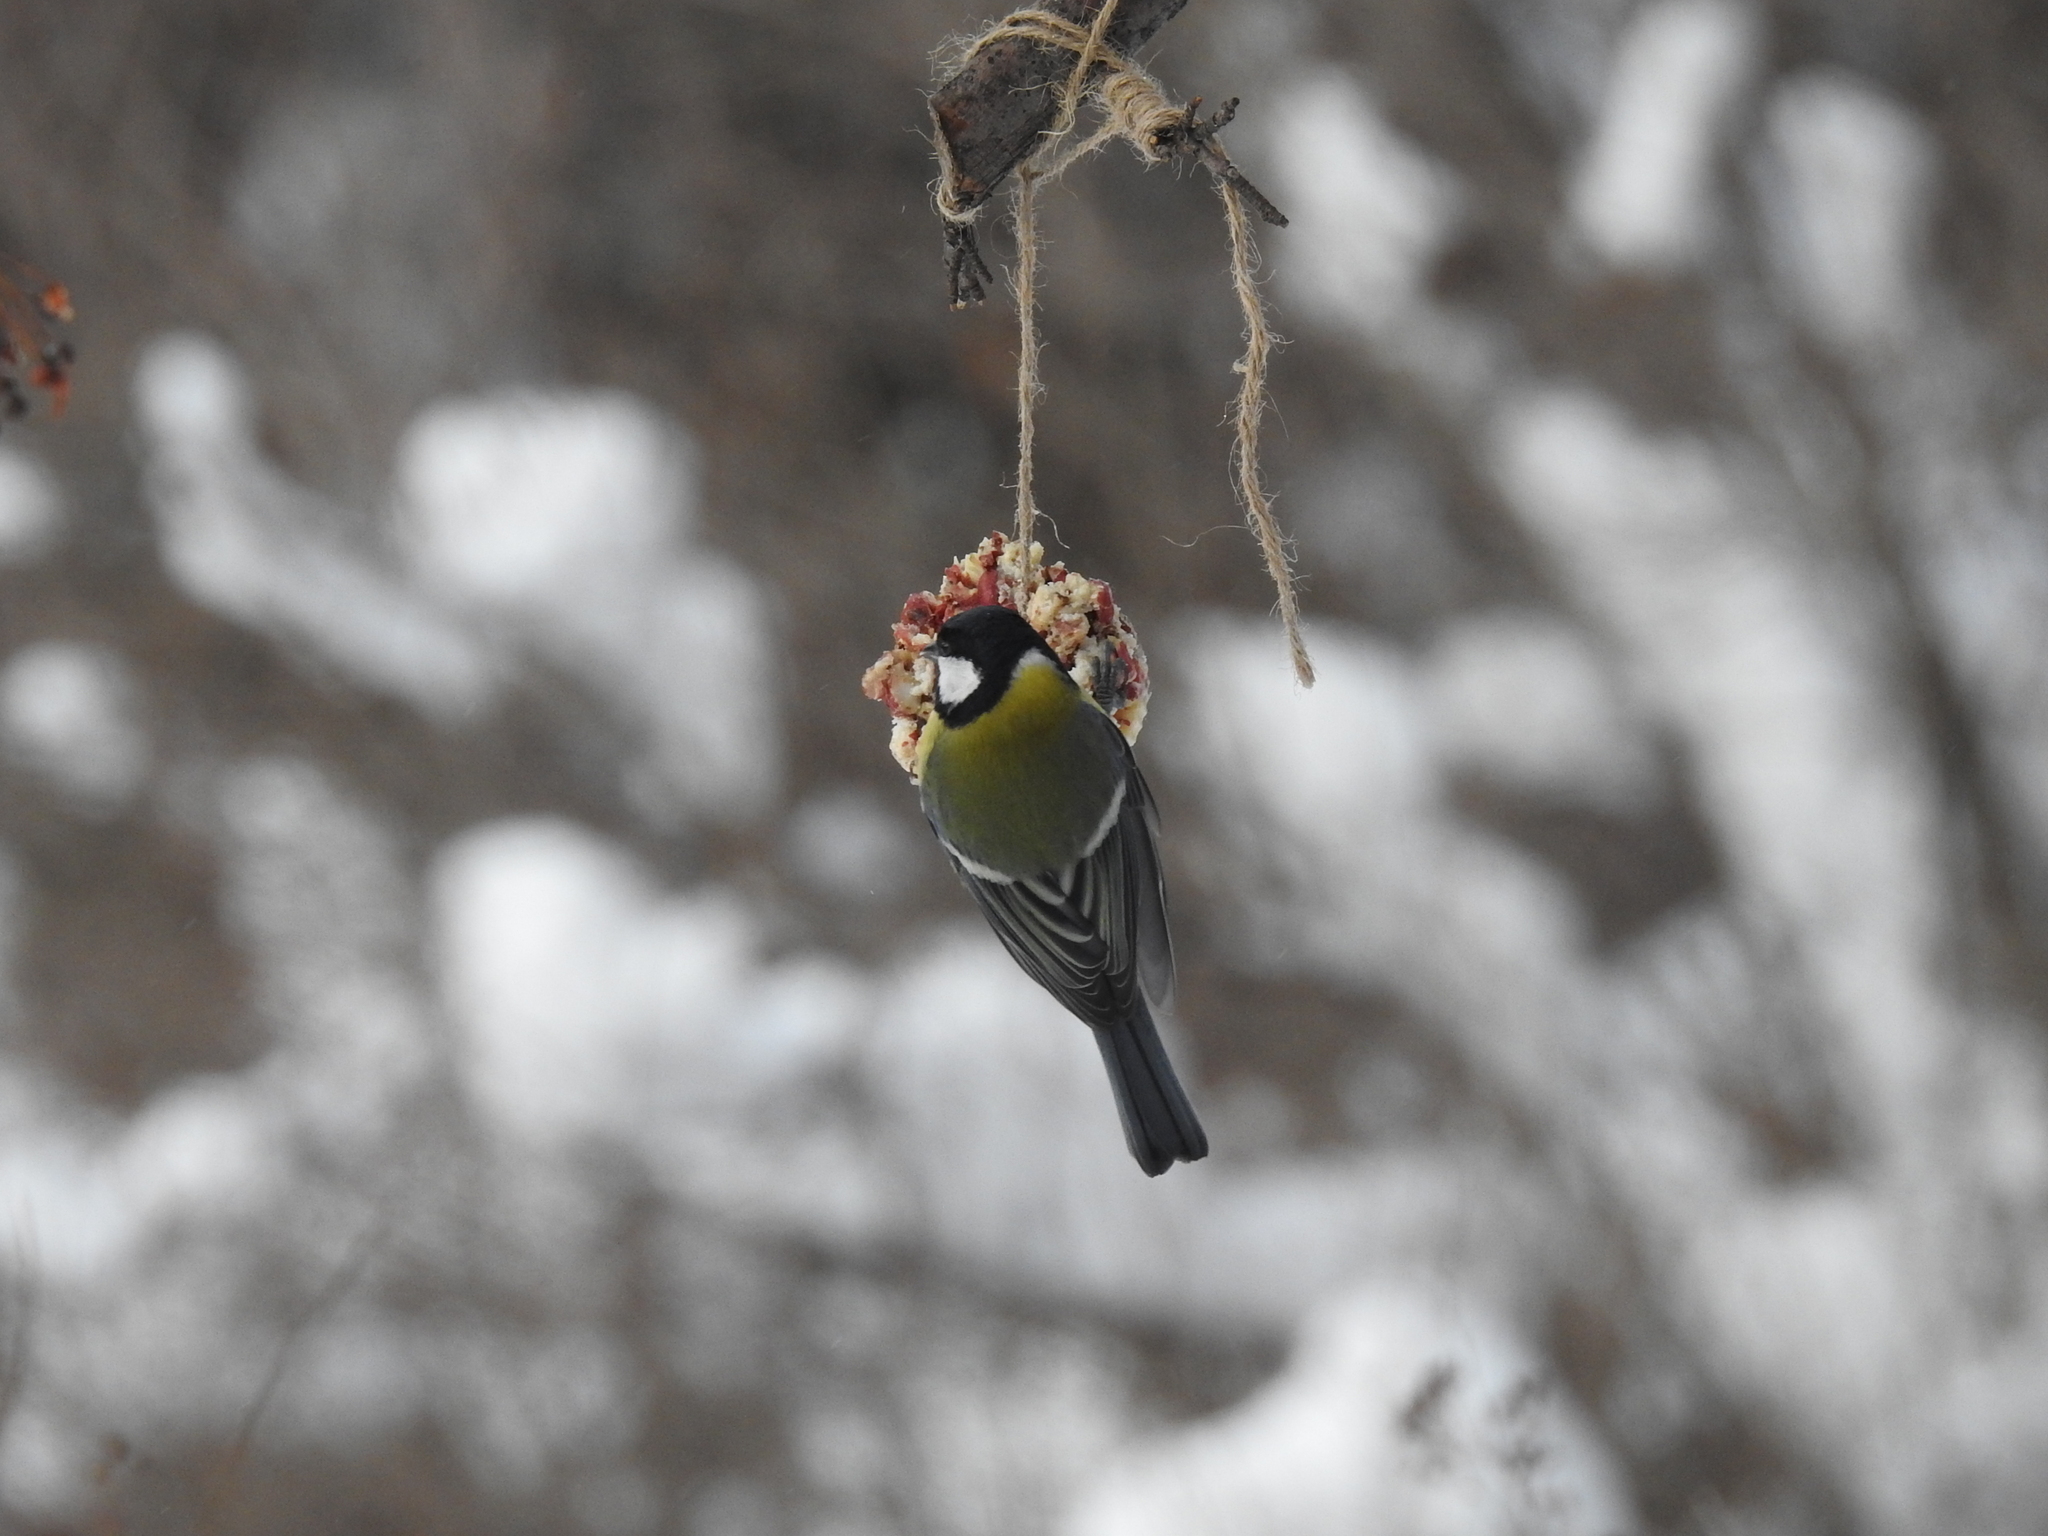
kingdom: Animalia
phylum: Chordata
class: Aves
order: Passeriformes
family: Paridae
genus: Parus
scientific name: Parus major
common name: Great tit
